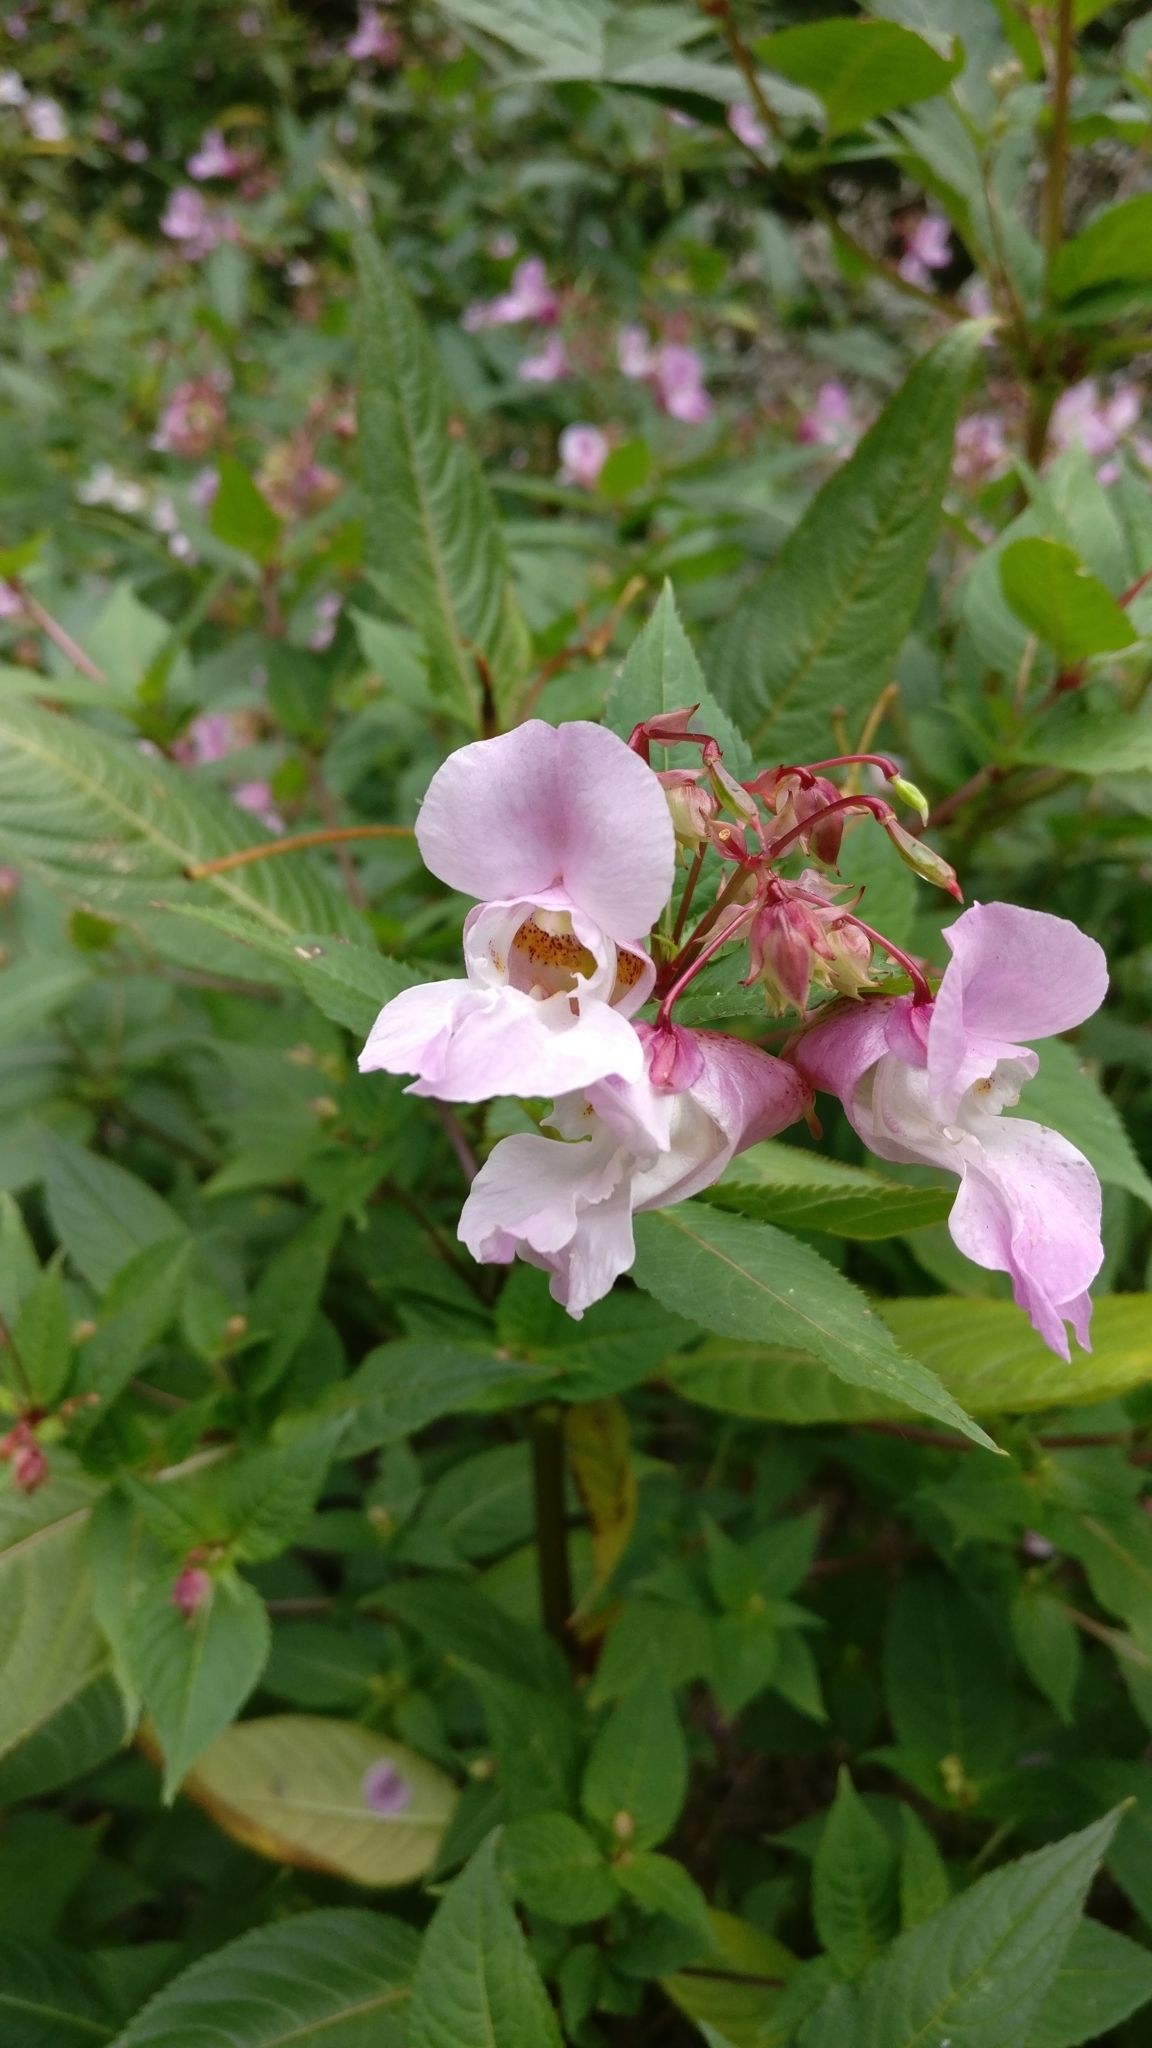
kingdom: Plantae
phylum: Tracheophyta
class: Magnoliopsida
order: Ericales
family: Balsaminaceae
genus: Impatiens
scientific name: Impatiens glandulifera
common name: Himalayan balsam
